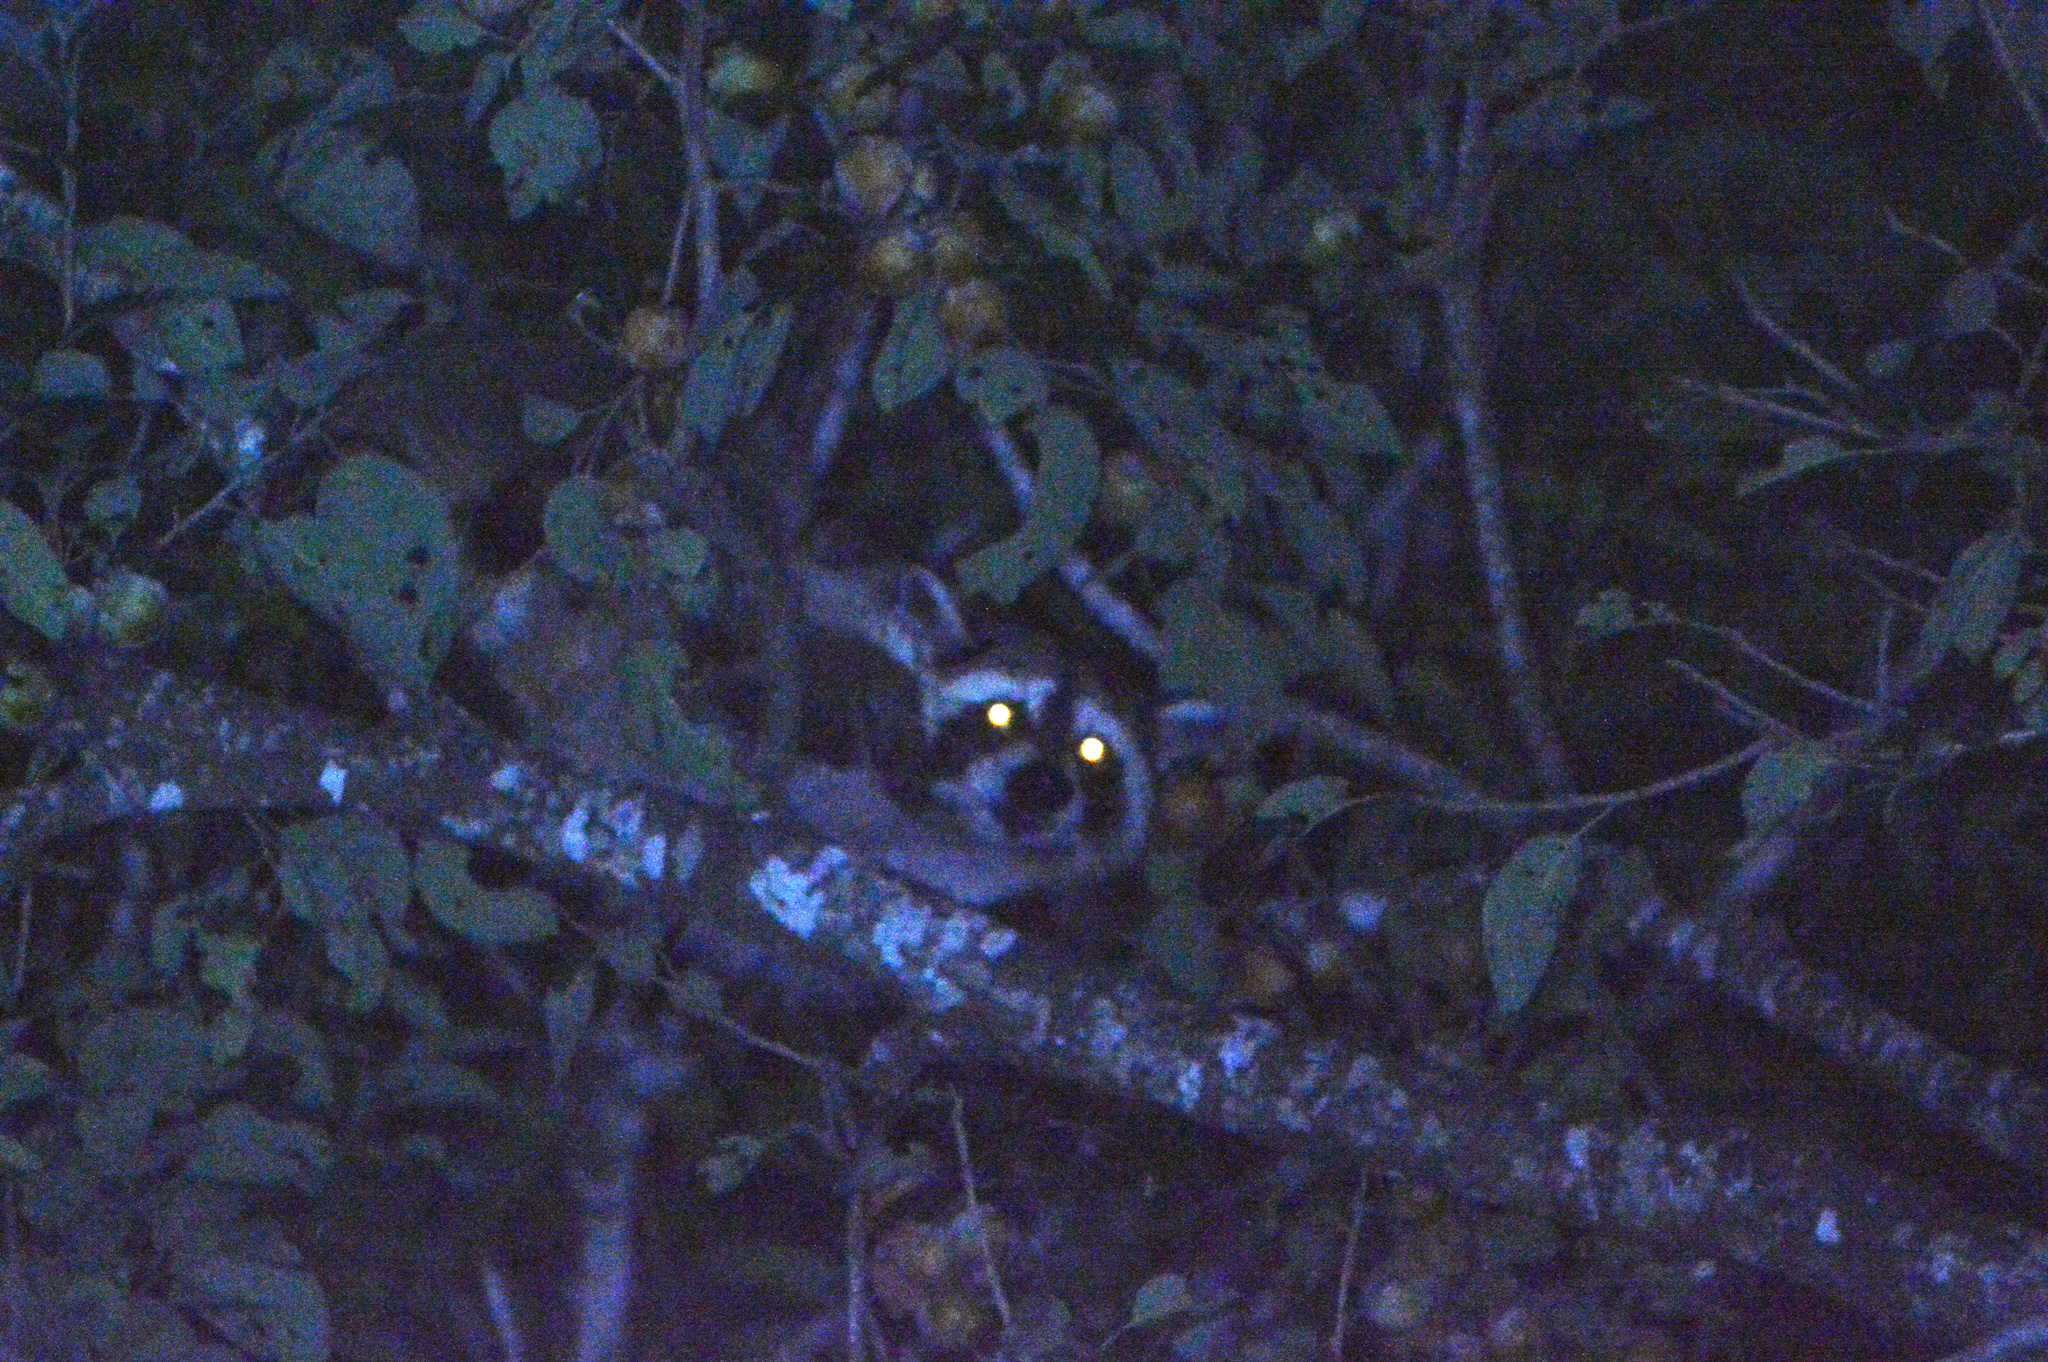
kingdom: Animalia
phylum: Chordata
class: Mammalia
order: Carnivora
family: Procyonidae
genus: Procyon
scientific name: Procyon lotor
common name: Raccoon
